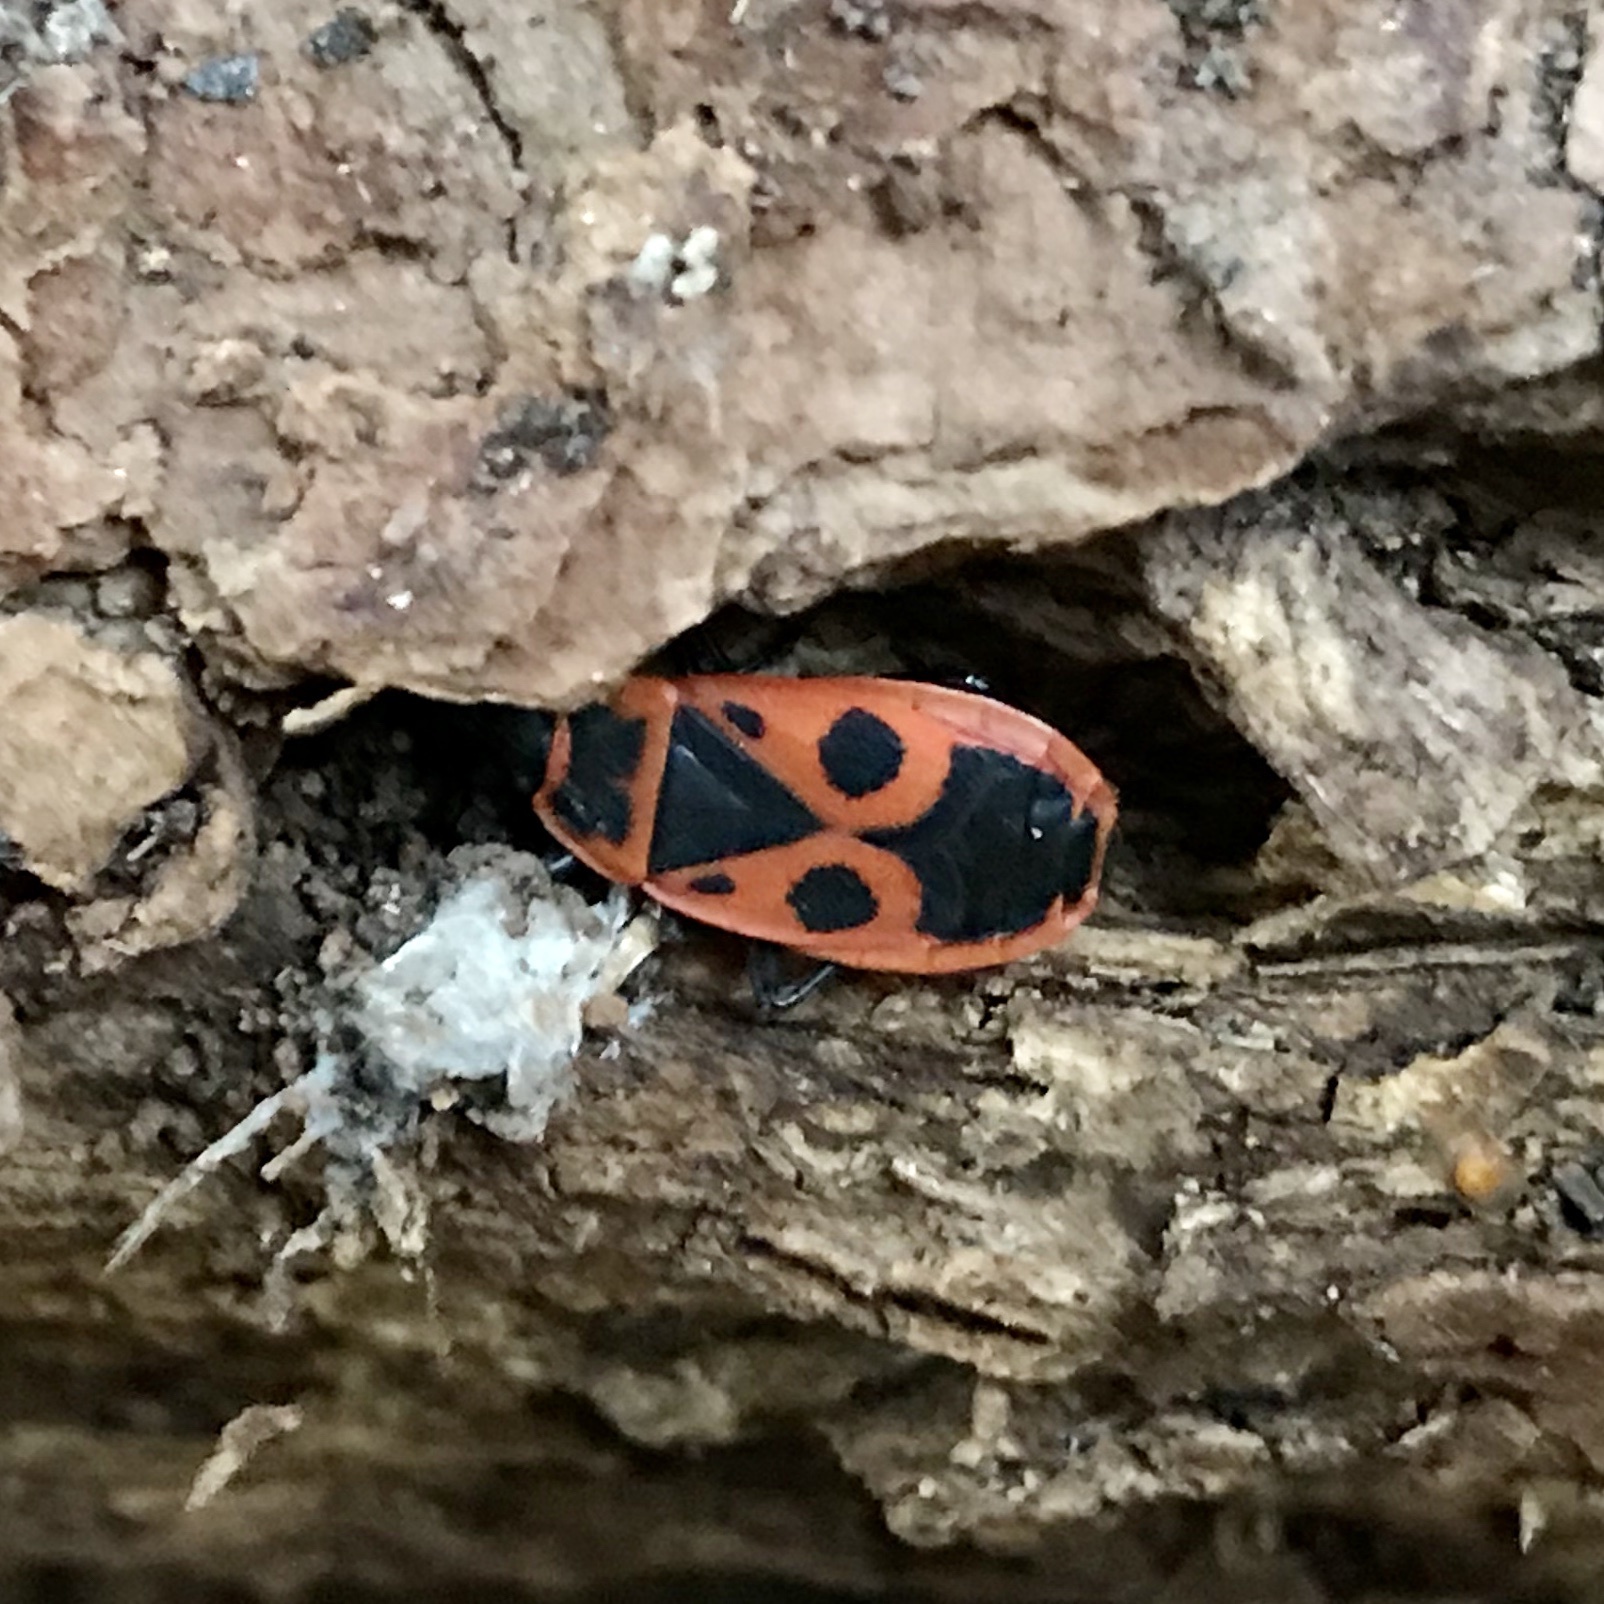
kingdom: Animalia
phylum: Arthropoda
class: Insecta
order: Hemiptera
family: Pyrrhocoridae
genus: Pyrrhocoris
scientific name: Pyrrhocoris apterus
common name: Firebug
